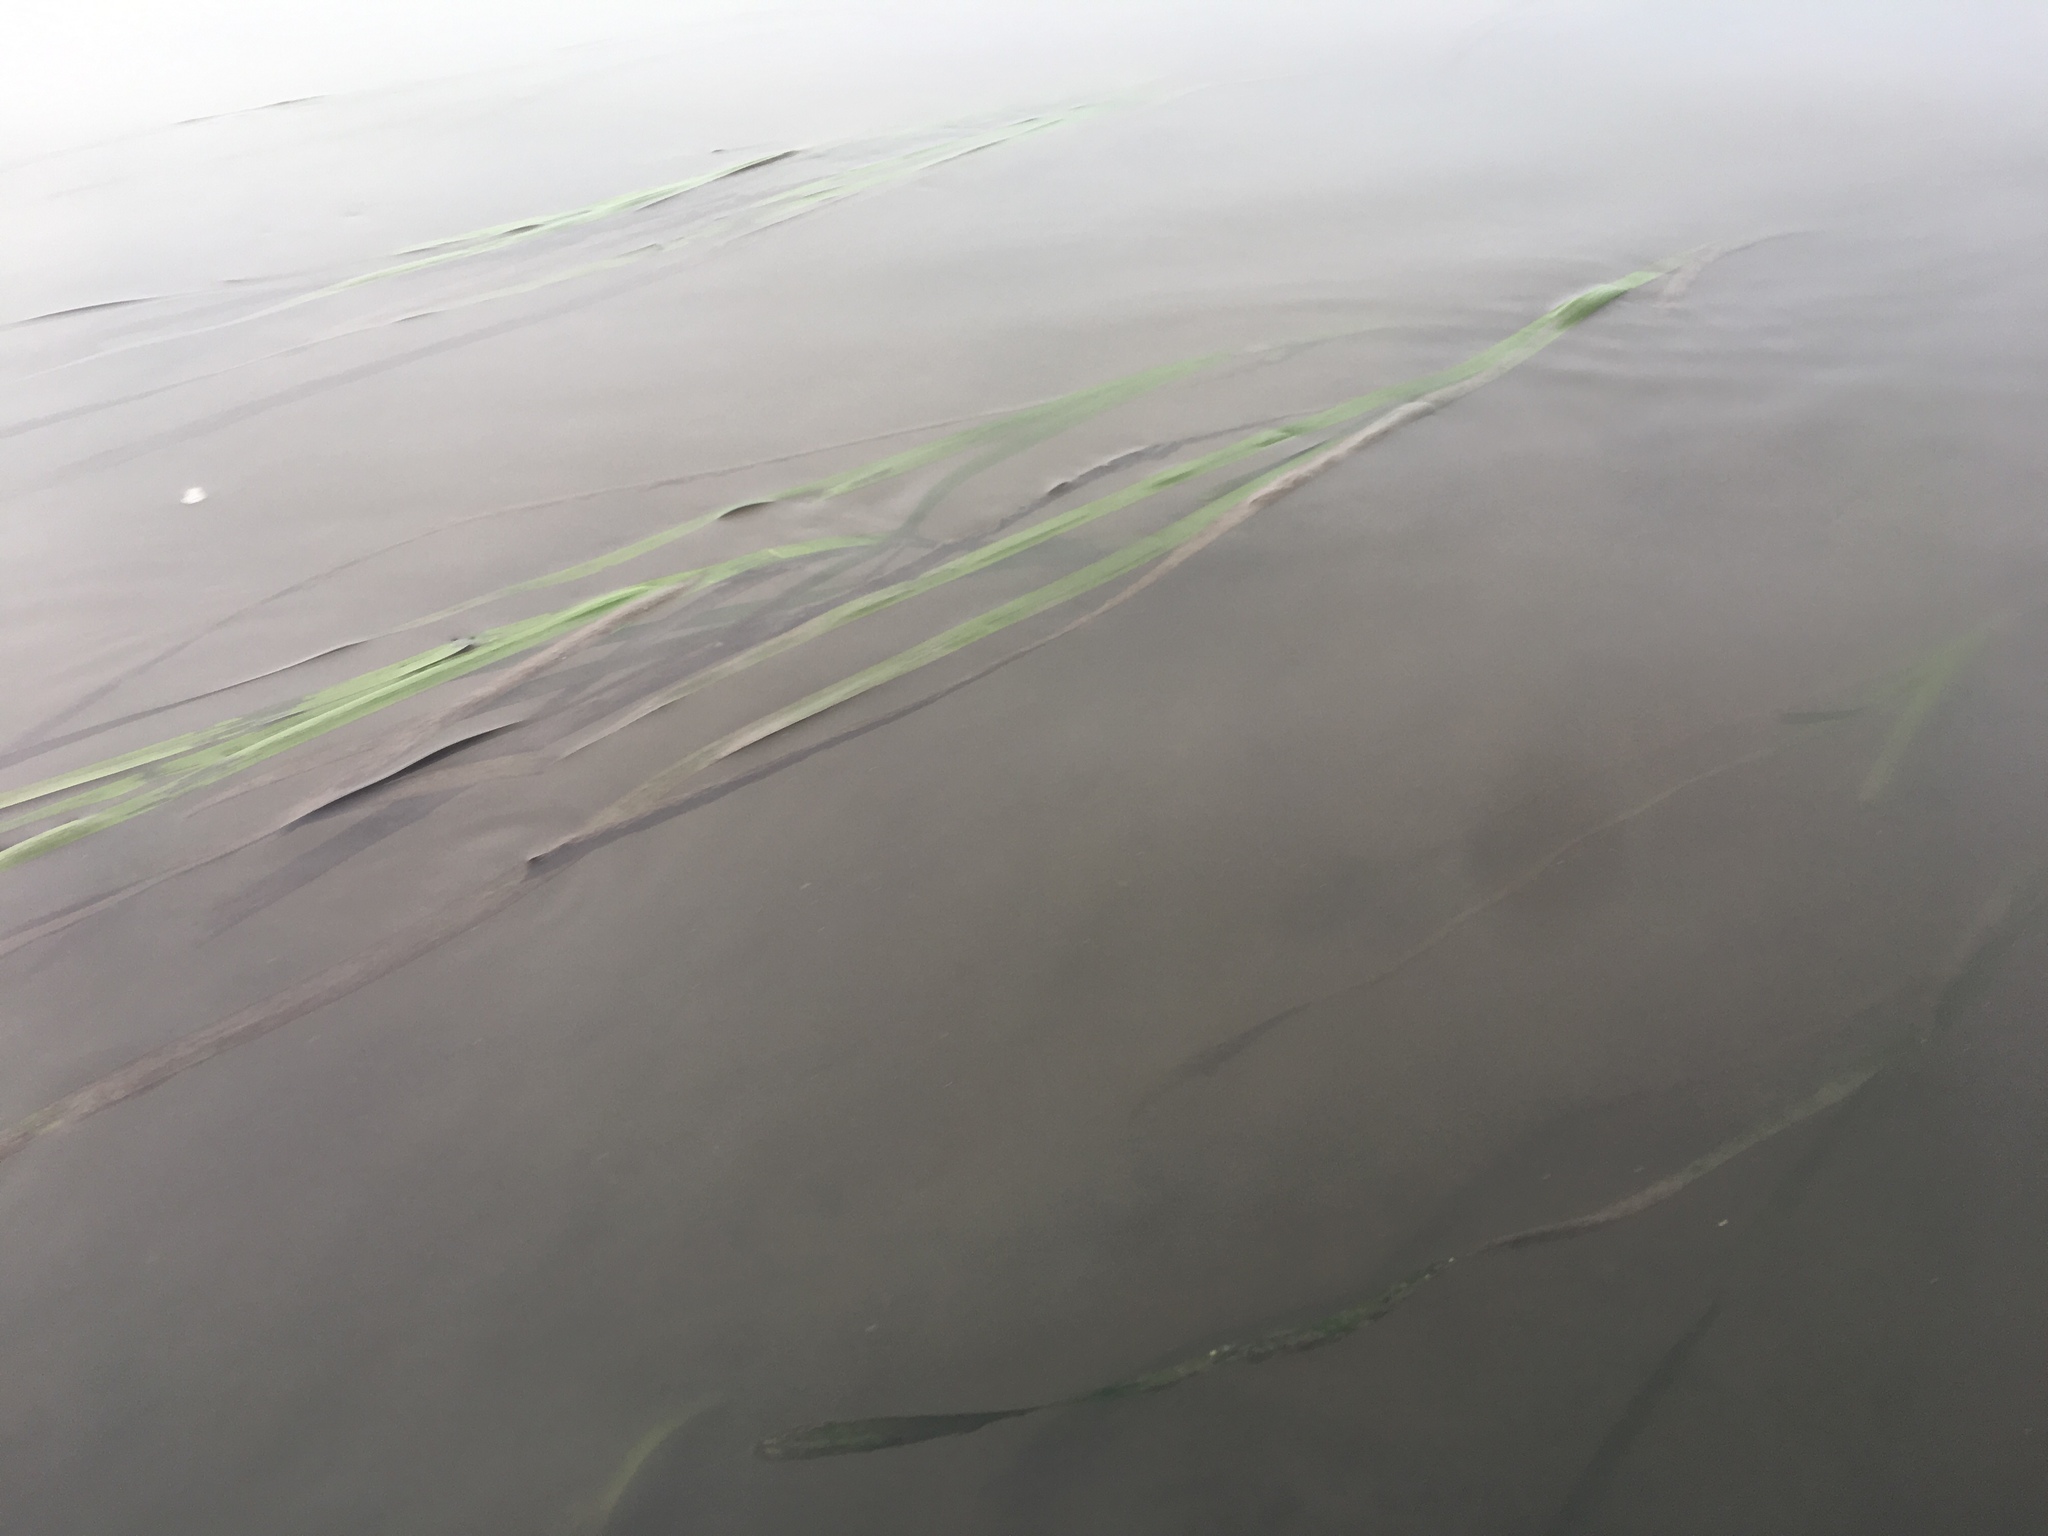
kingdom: Plantae
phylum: Tracheophyta
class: Liliopsida
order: Alismatales
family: Zosteraceae
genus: Zostera
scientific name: Zostera marina
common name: Eelgrass
